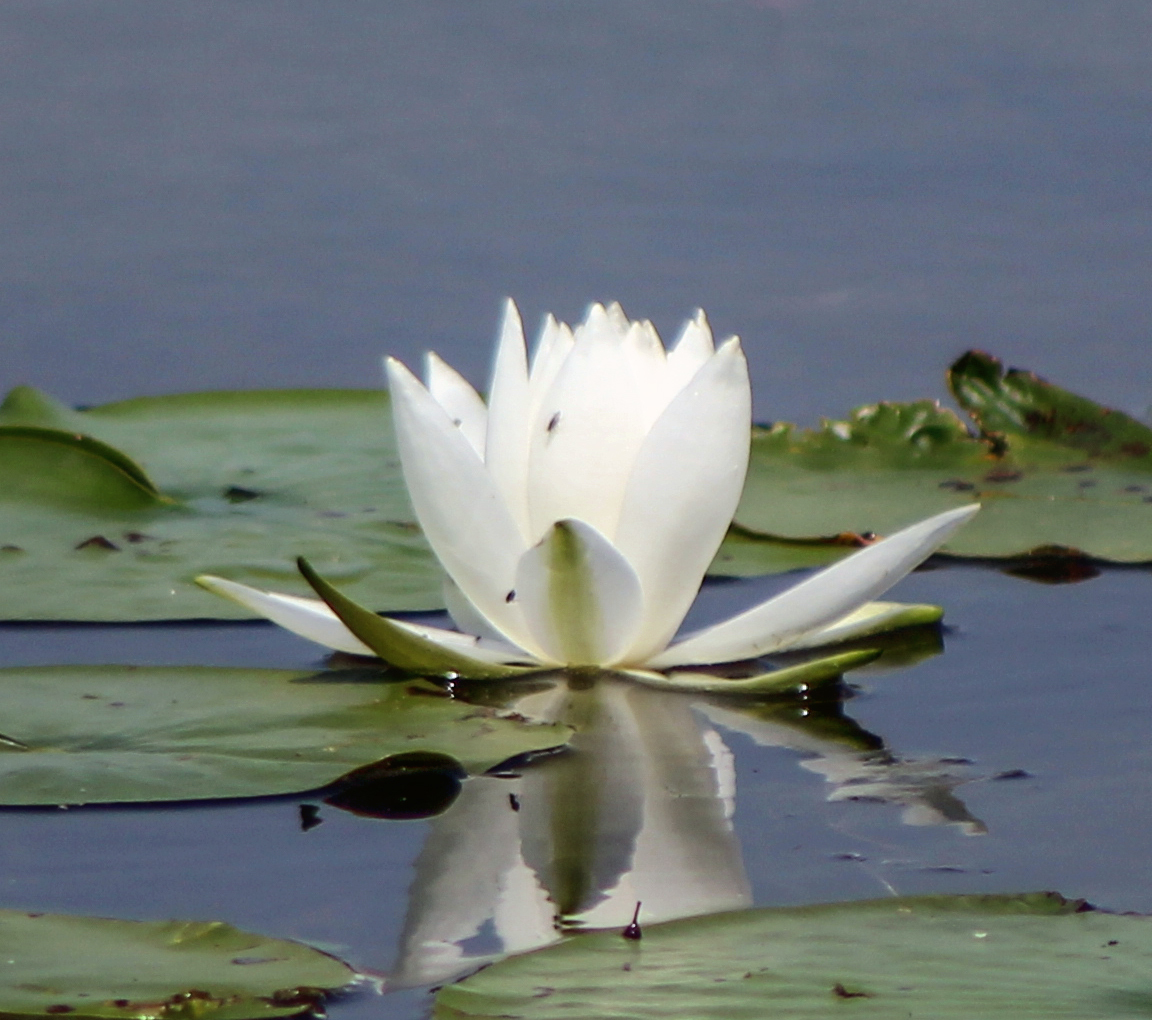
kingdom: Plantae
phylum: Tracheophyta
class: Magnoliopsida
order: Nymphaeales
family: Nymphaeaceae
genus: Nymphaea
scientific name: Nymphaea odorata
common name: Fragrant water-lily
